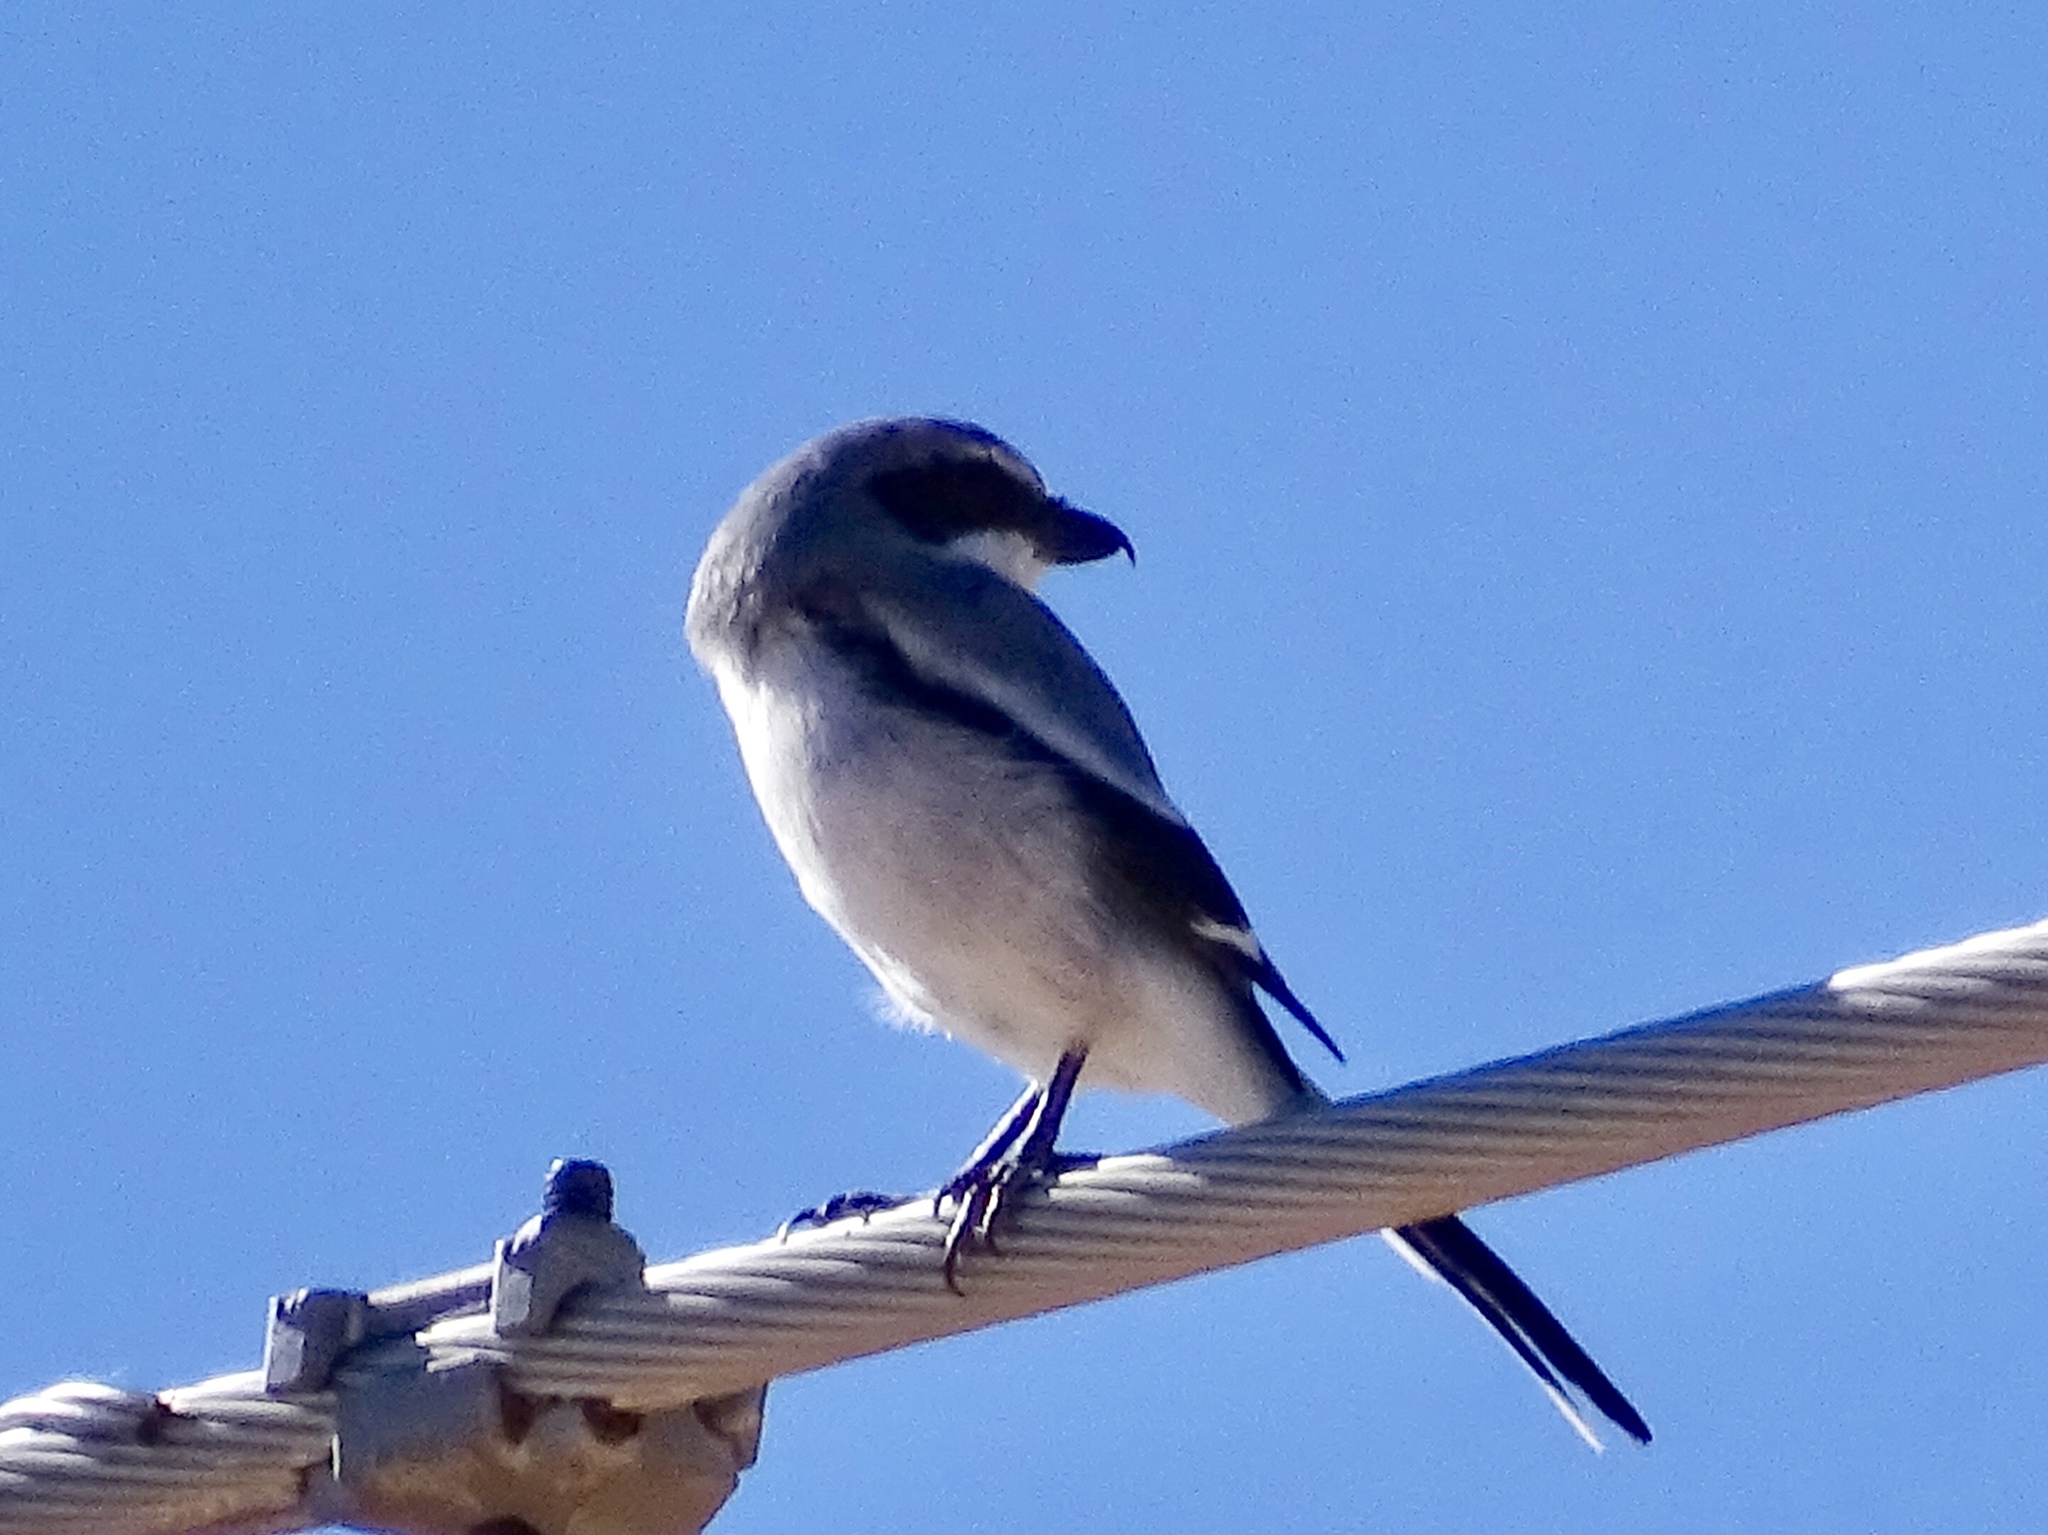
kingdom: Animalia
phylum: Chordata
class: Aves
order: Passeriformes
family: Laniidae
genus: Lanius
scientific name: Lanius ludovicianus
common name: Loggerhead shrike
